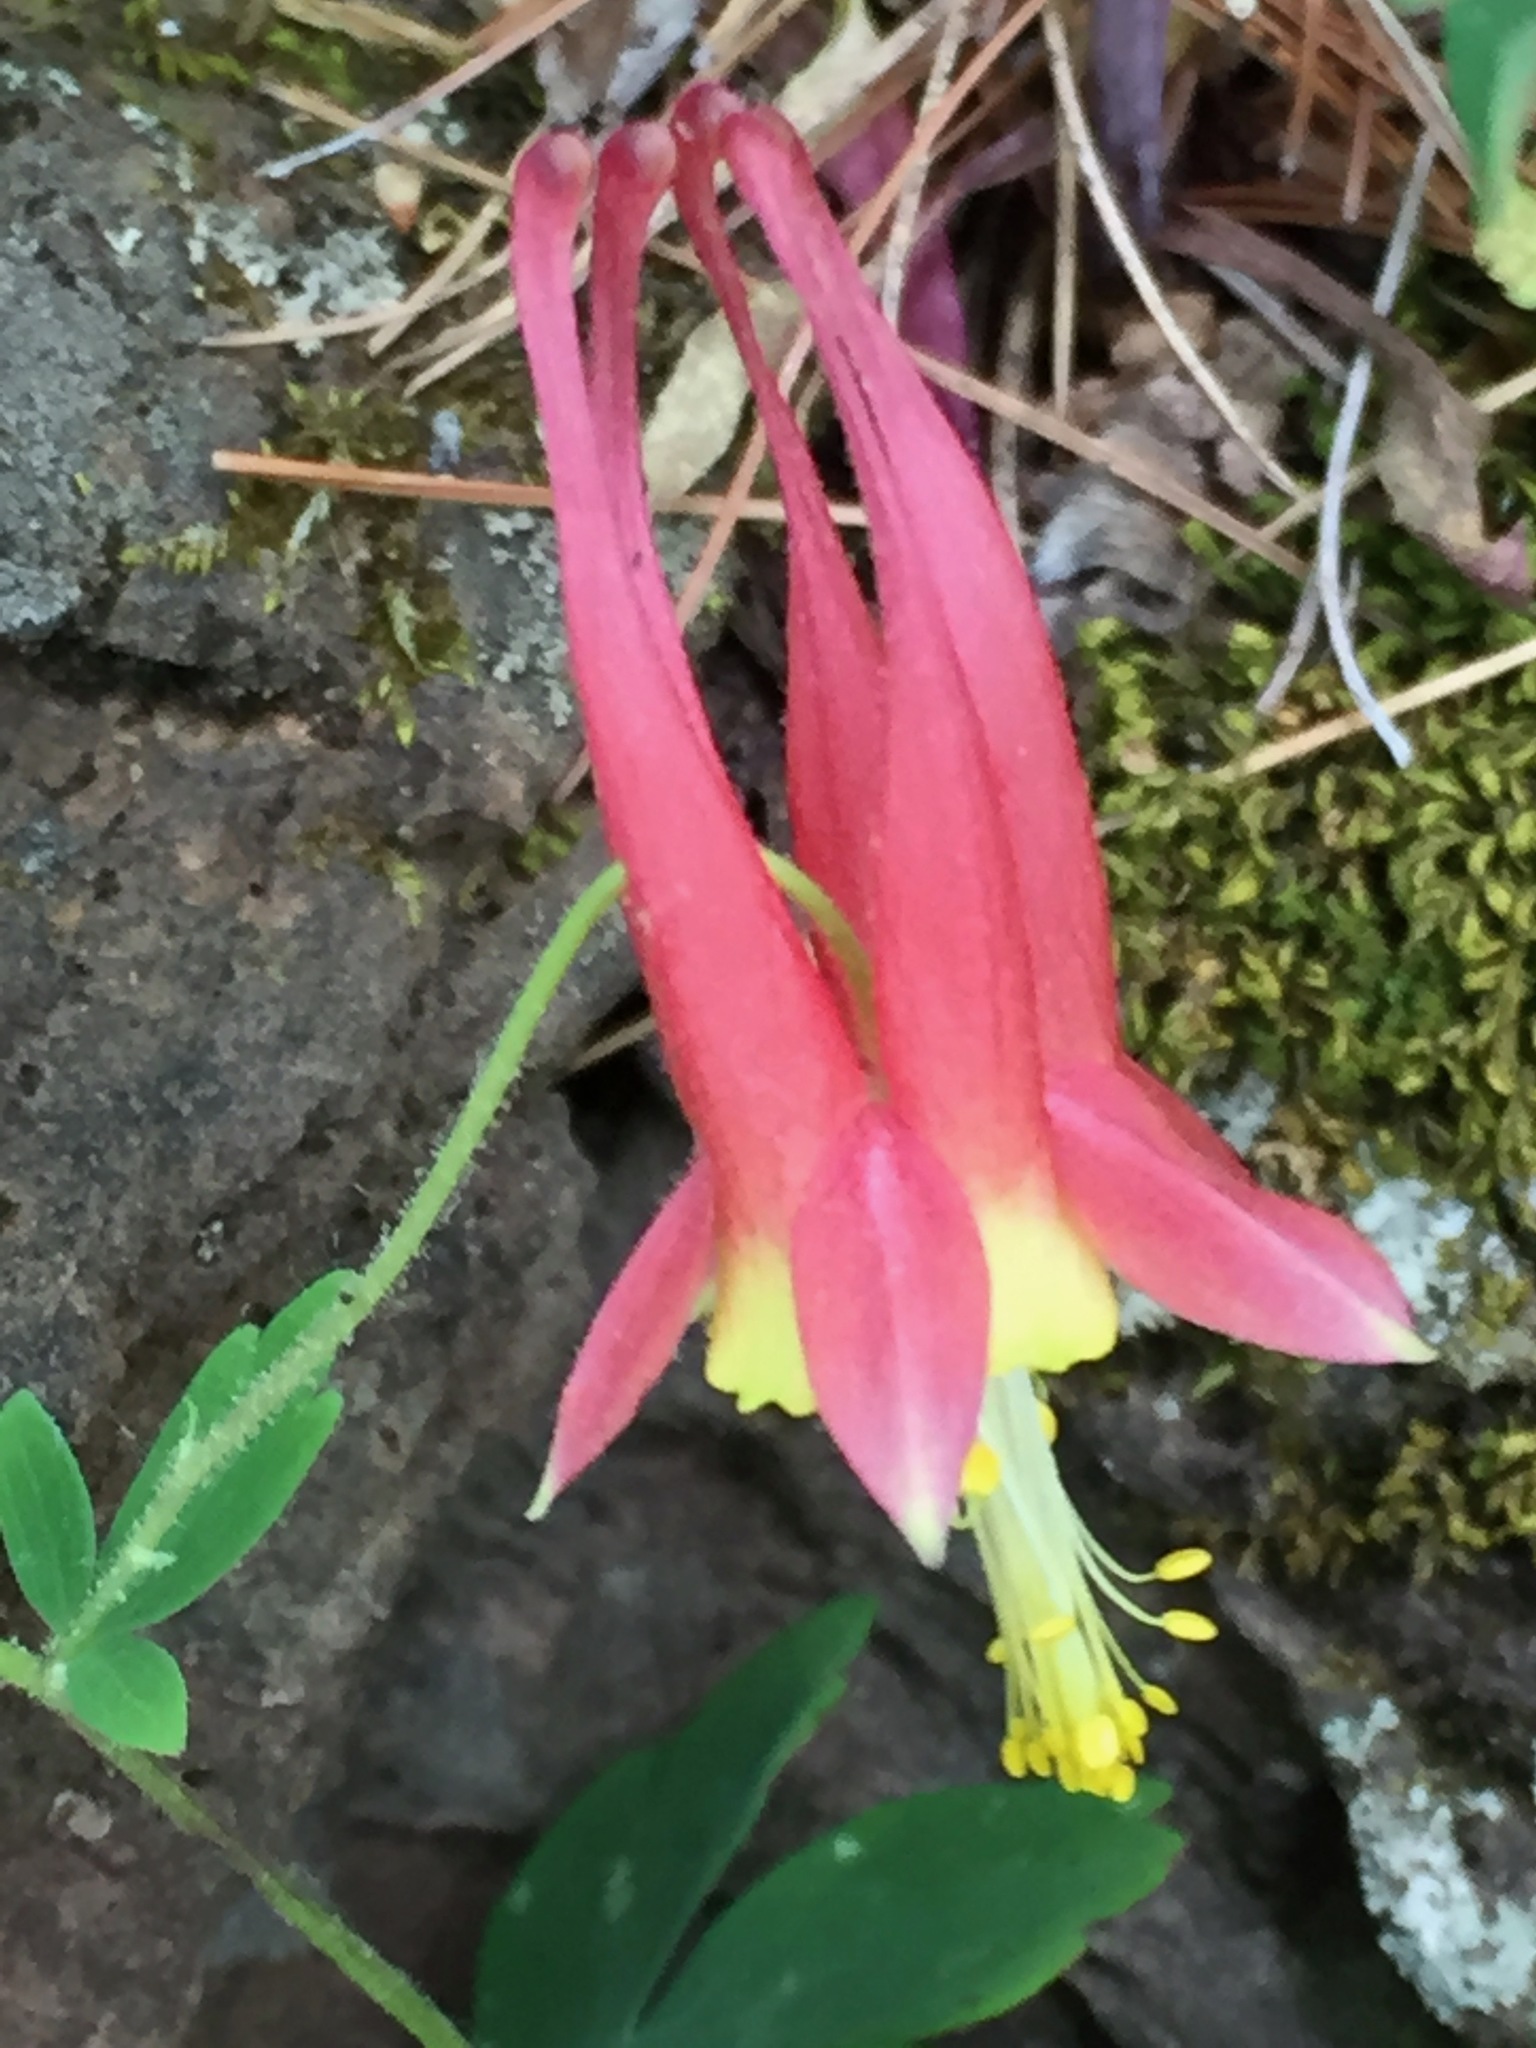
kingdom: Plantae
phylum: Tracheophyta
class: Magnoliopsida
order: Ranunculales
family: Ranunculaceae
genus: Aquilegia
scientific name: Aquilegia canadensis
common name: American columbine
